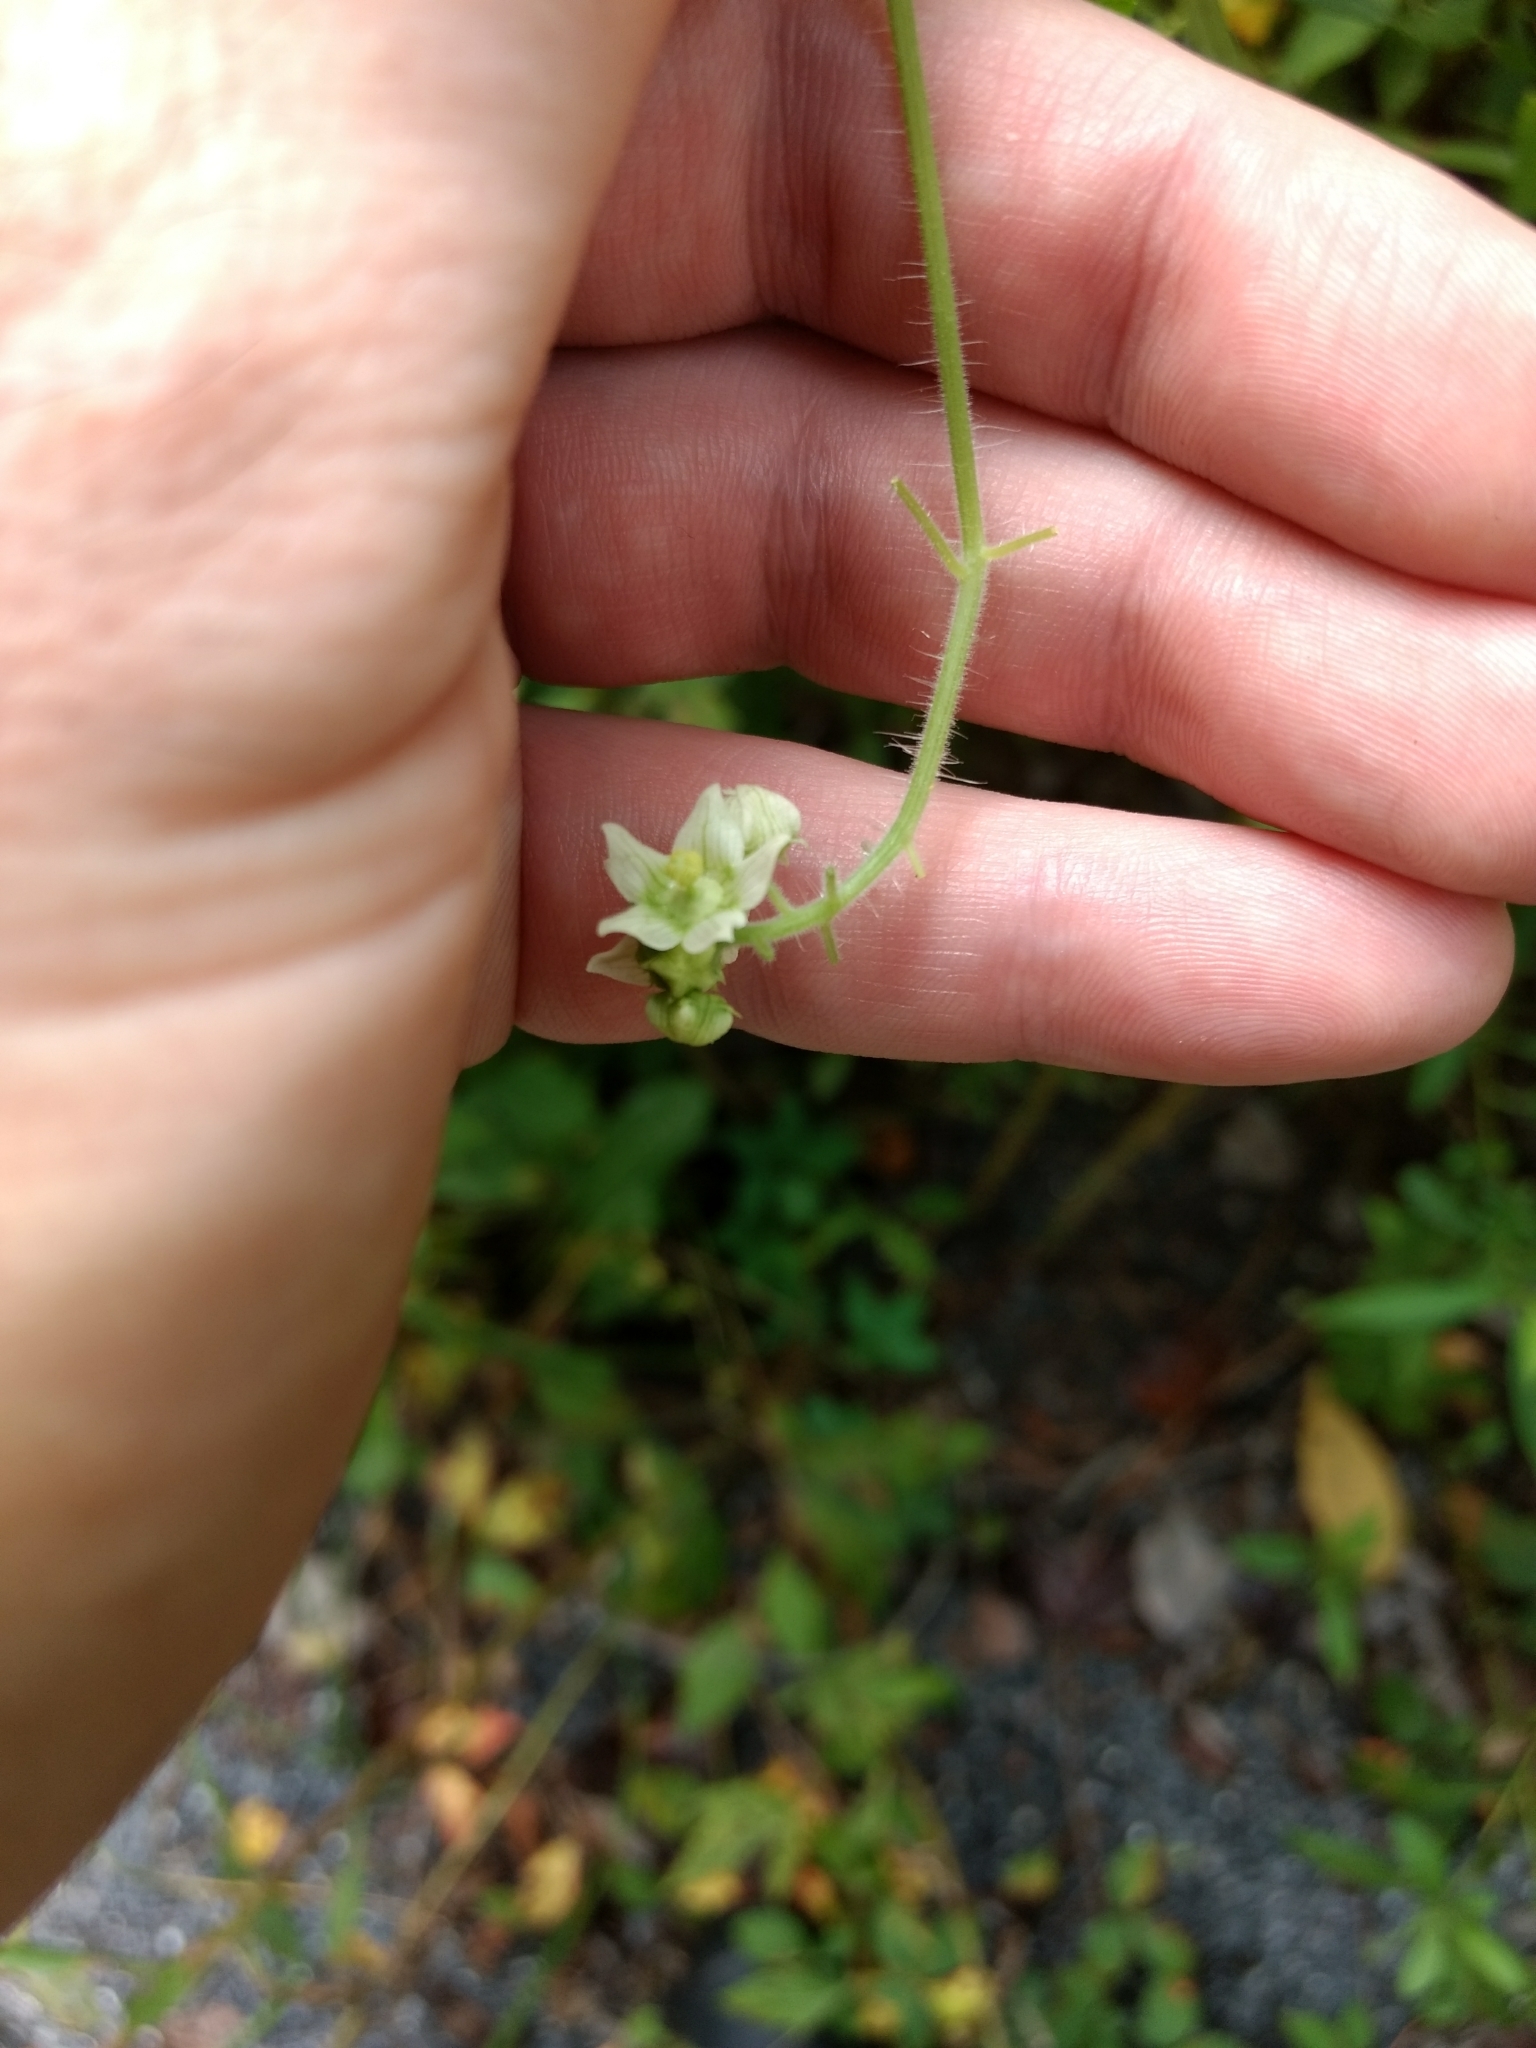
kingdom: Plantae
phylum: Tracheophyta
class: Magnoliopsida
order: Cucurbitales
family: Cucurbitaceae
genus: Sicyos
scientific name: Sicyos angulatus
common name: Angled burr cucumber
